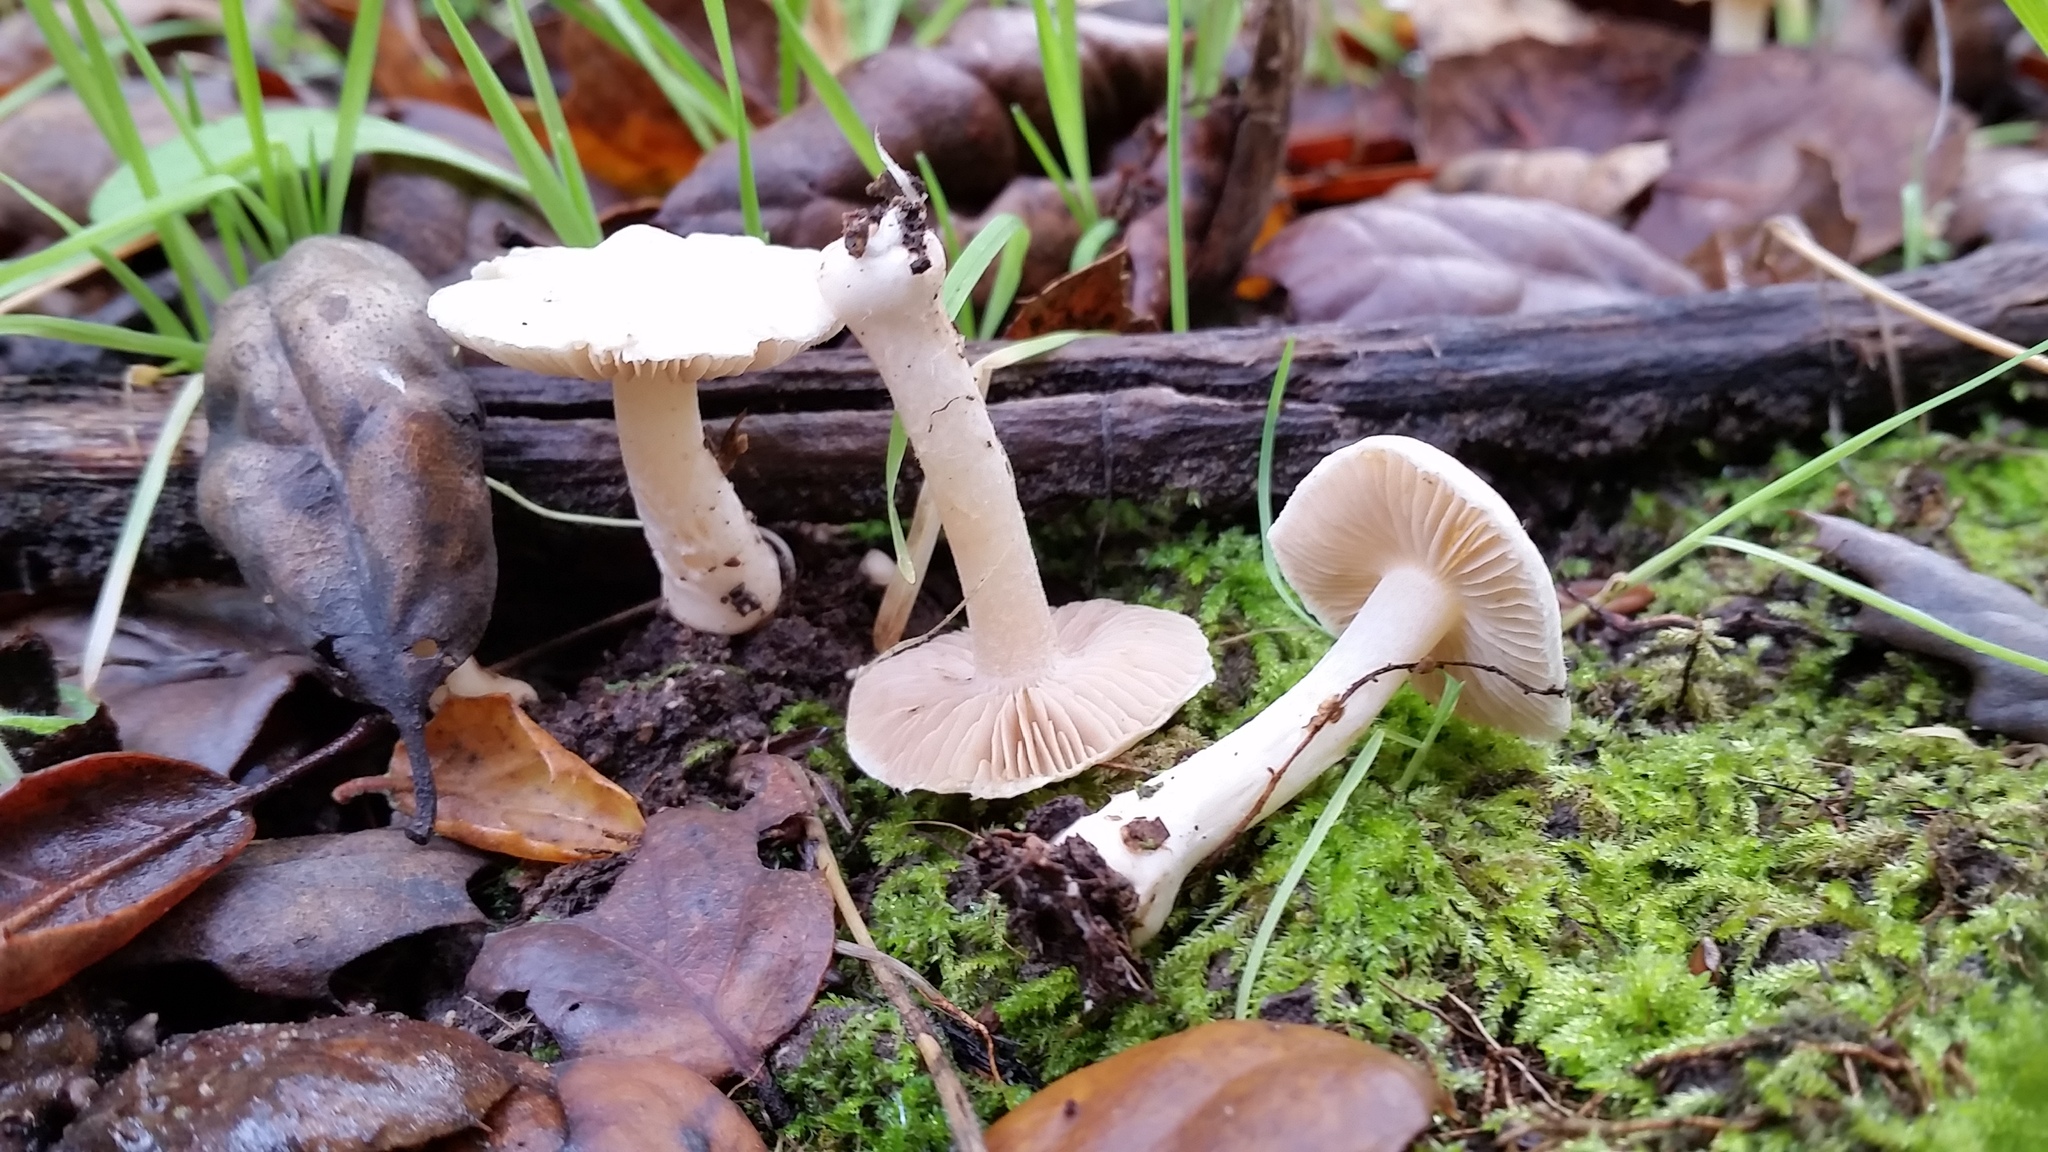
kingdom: Fungi
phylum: Basidiomycota
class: Agaricomycetes
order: Agaricales
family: Inocybaceae
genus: Inocybe
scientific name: Inocybe insinuata
